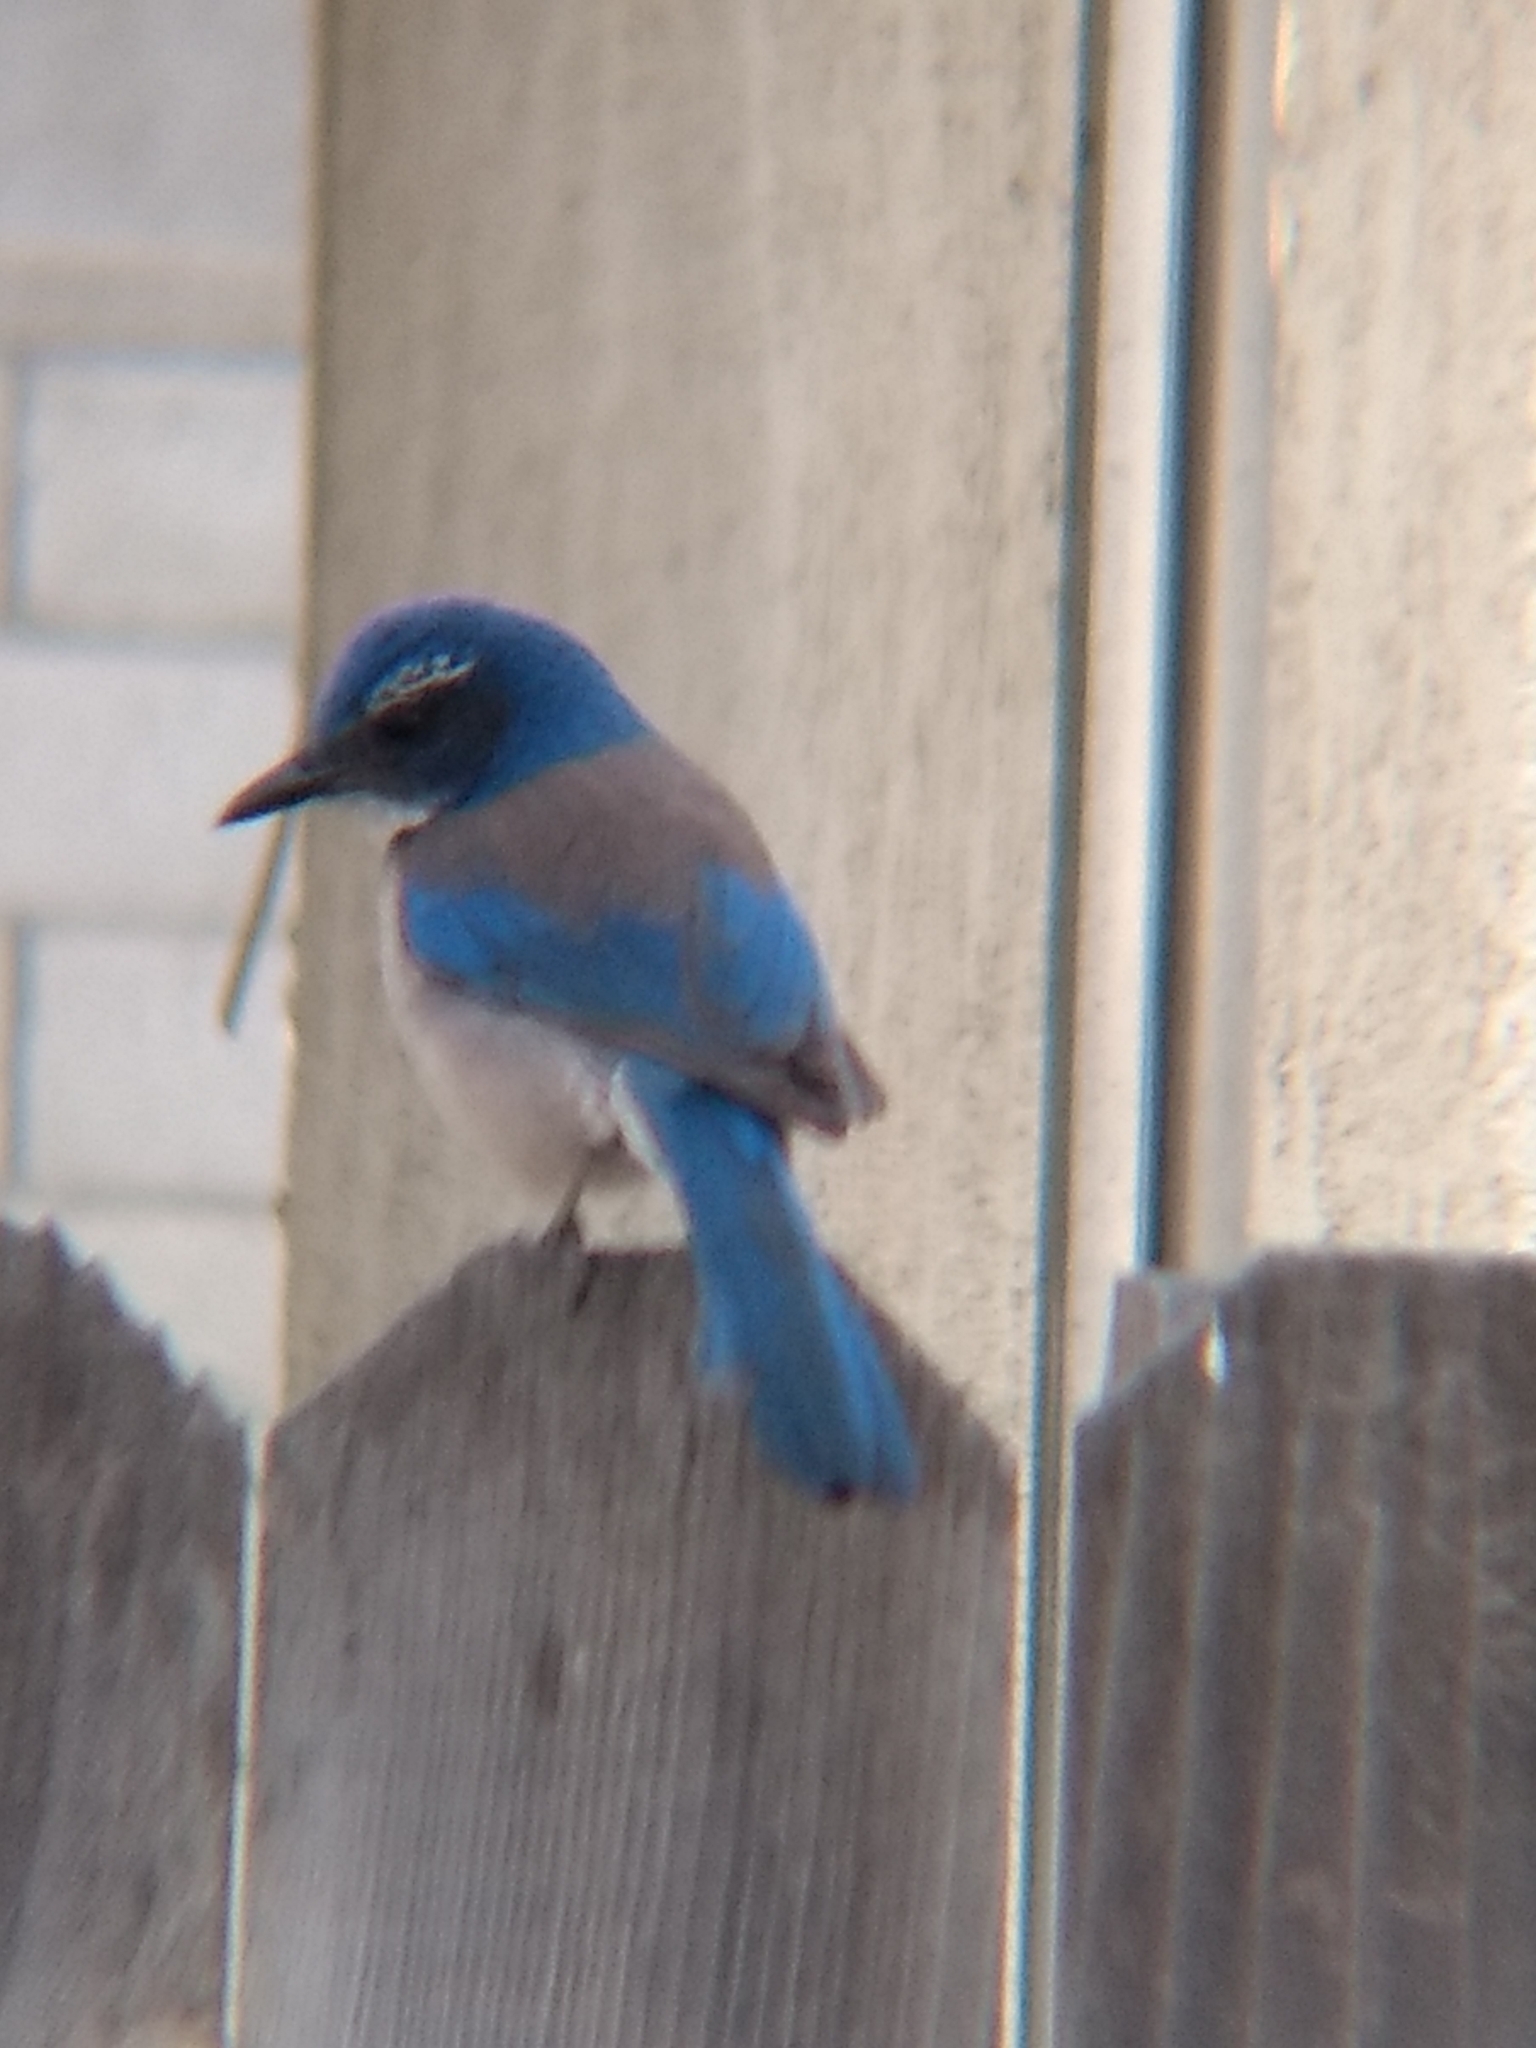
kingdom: Animalia
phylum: Chordata
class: Aves
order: Passeriformes
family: Corvidae
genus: Aphelocoma
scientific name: Aphelocoma californica
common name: California scrub-jay
